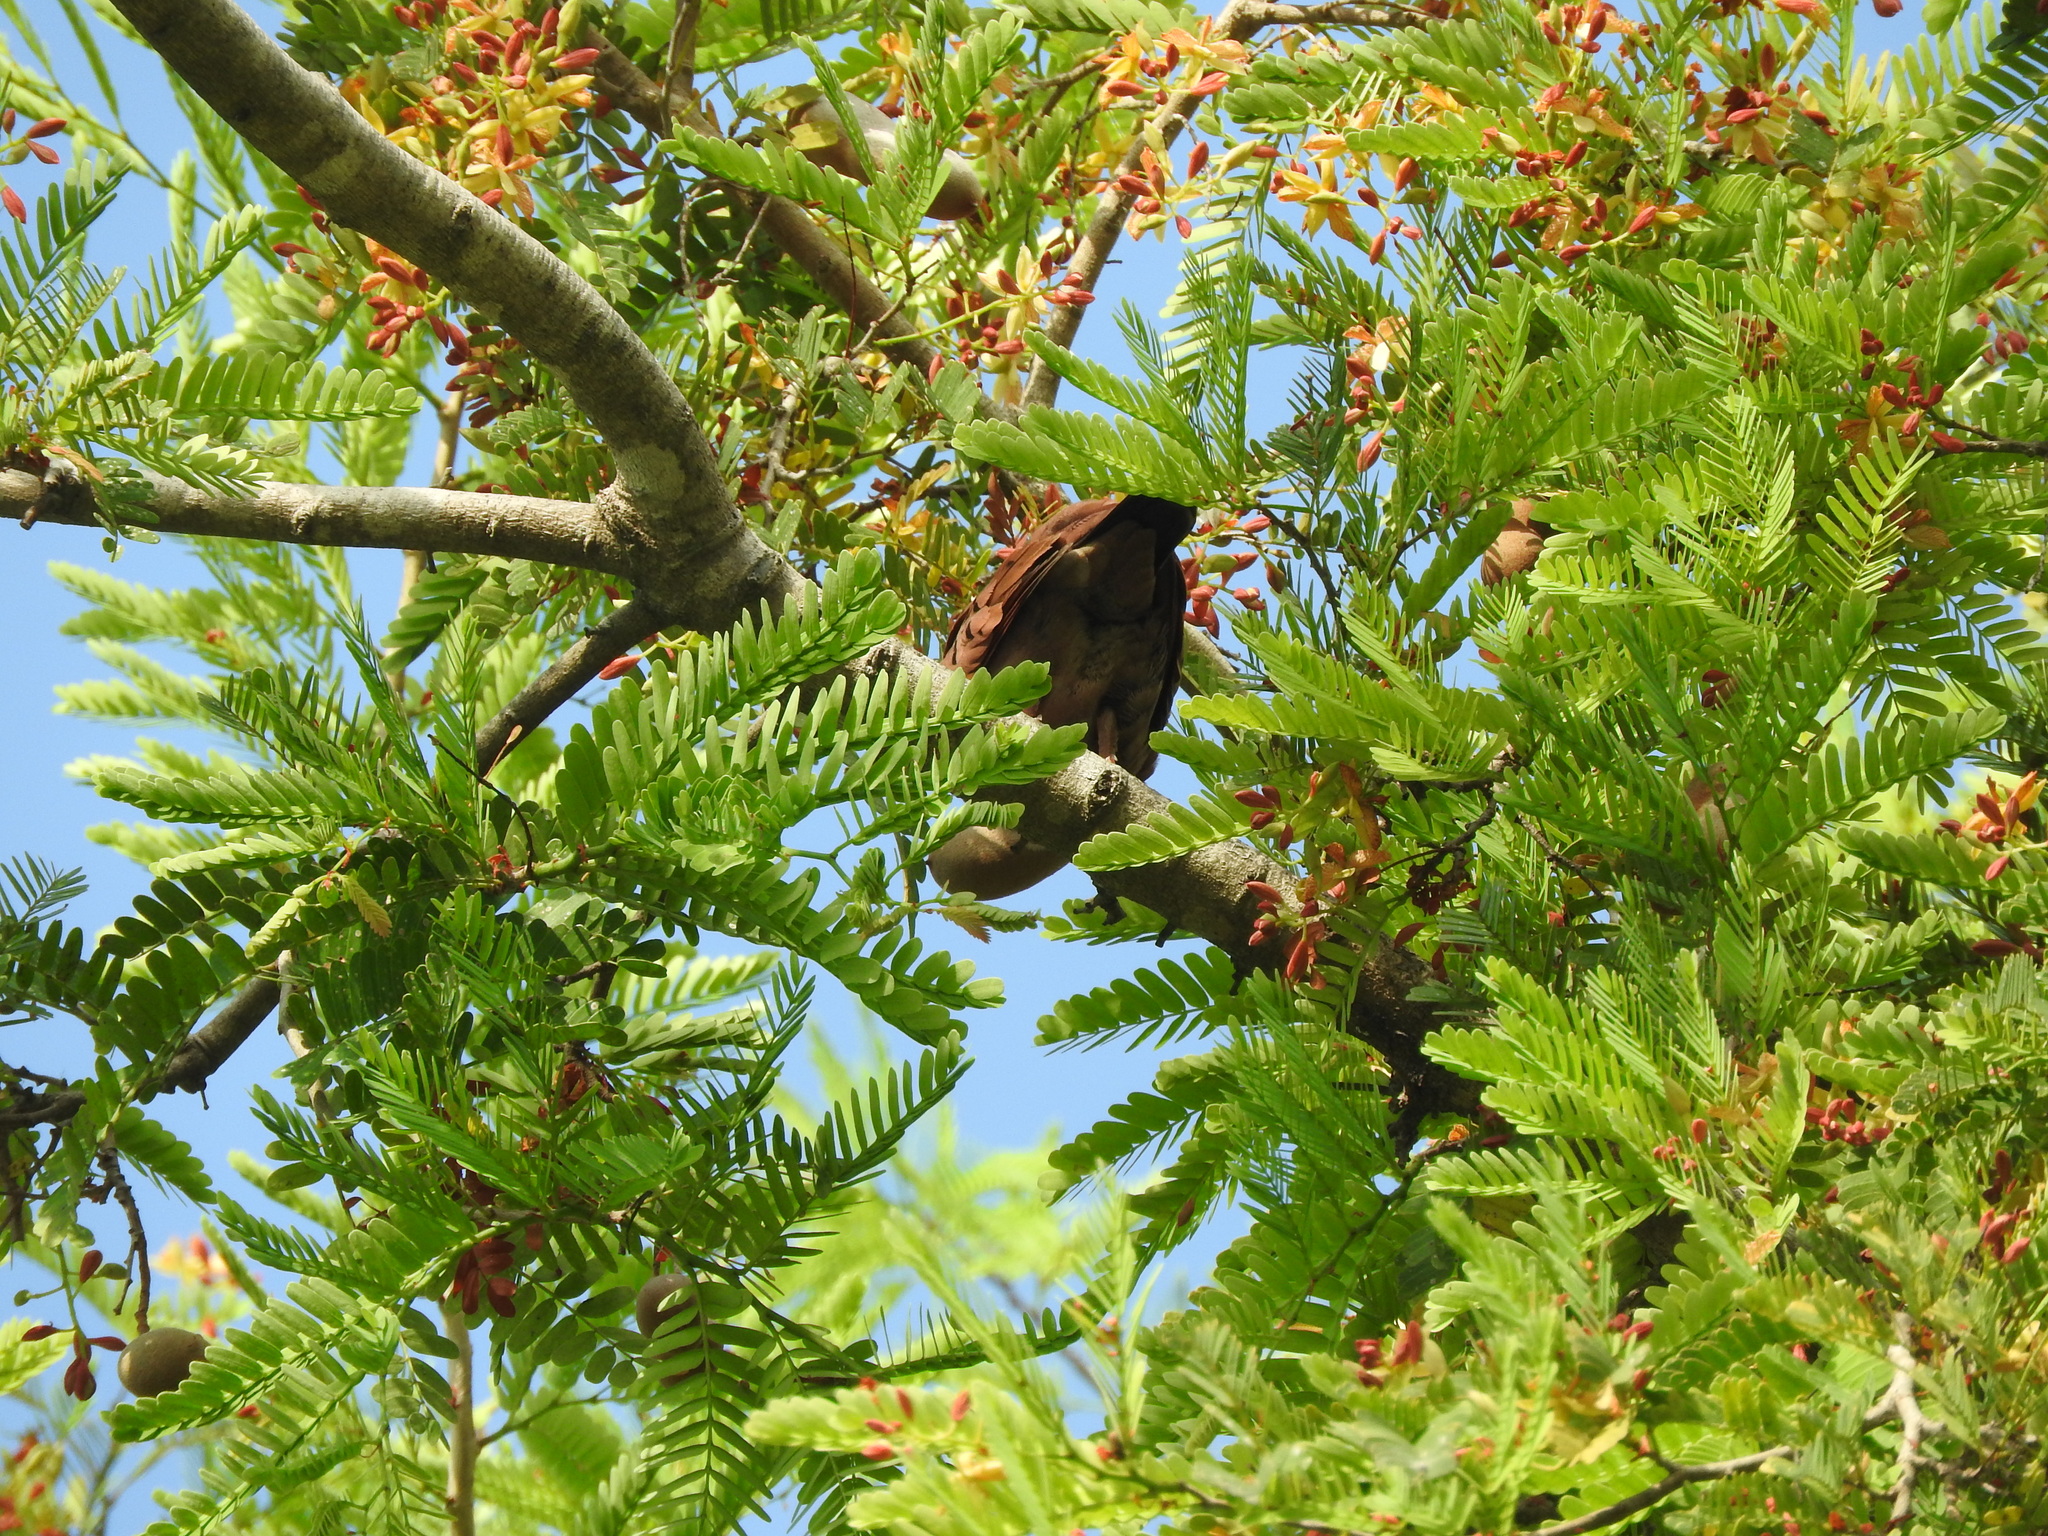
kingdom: Animalia
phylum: Chordata
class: Aves
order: Columbiformes
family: Columbidae
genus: Columbina
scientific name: Columbina talpacoti
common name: Ruddy ground dove
